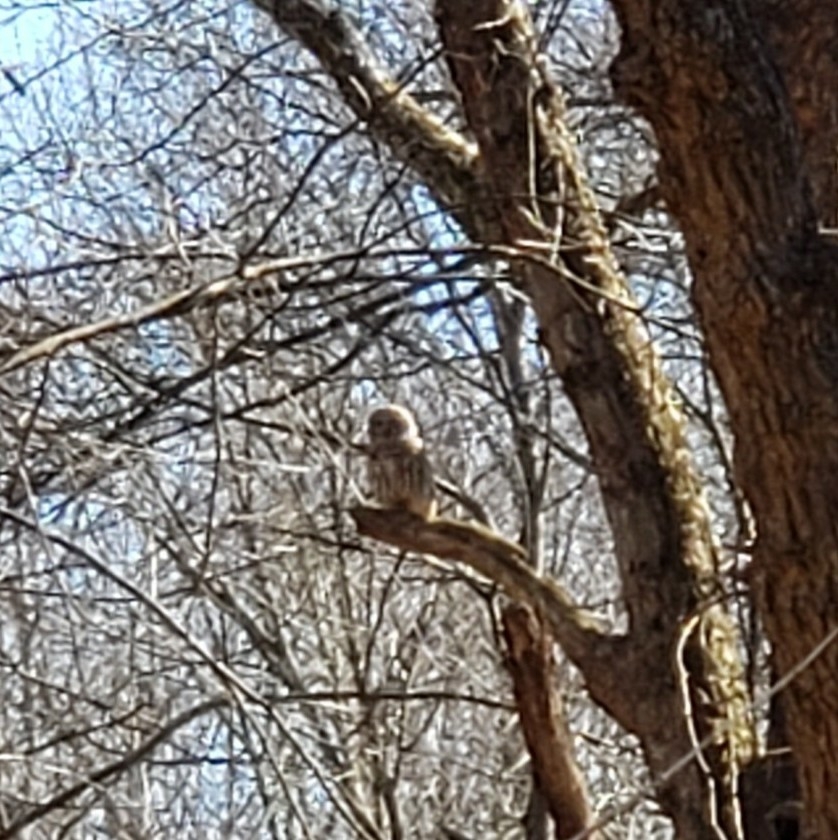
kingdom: Animalia
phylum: Chordata
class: Aves
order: Strigiformes
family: Strigidae
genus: Strix
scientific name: Strix varia
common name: Barred owl
